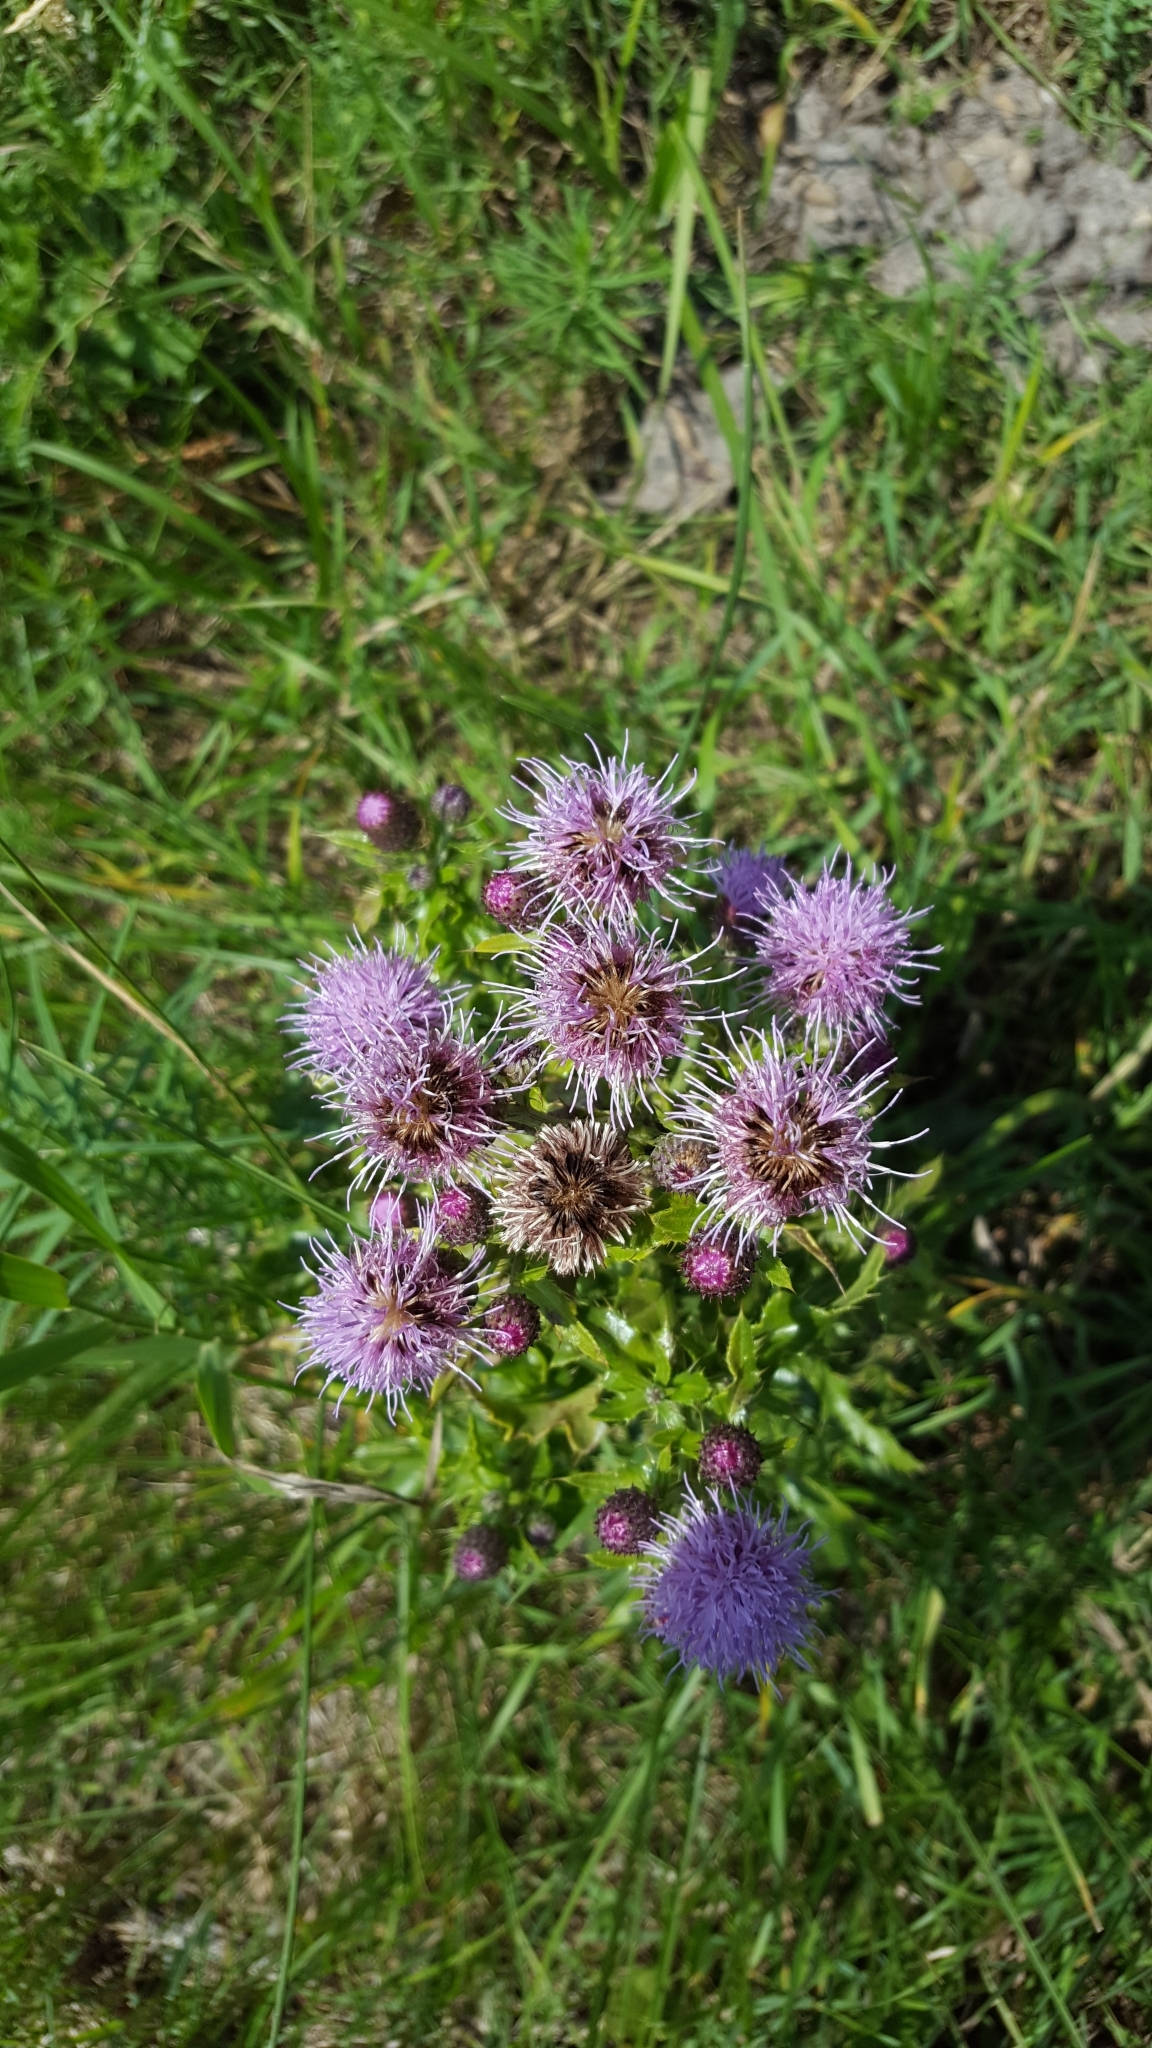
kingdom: Plantae
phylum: Tracheophyta
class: Magnoliopsida
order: Asterales
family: Asteraceae
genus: Cirsium
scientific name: Cirsium arvense
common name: Creeping thistle
